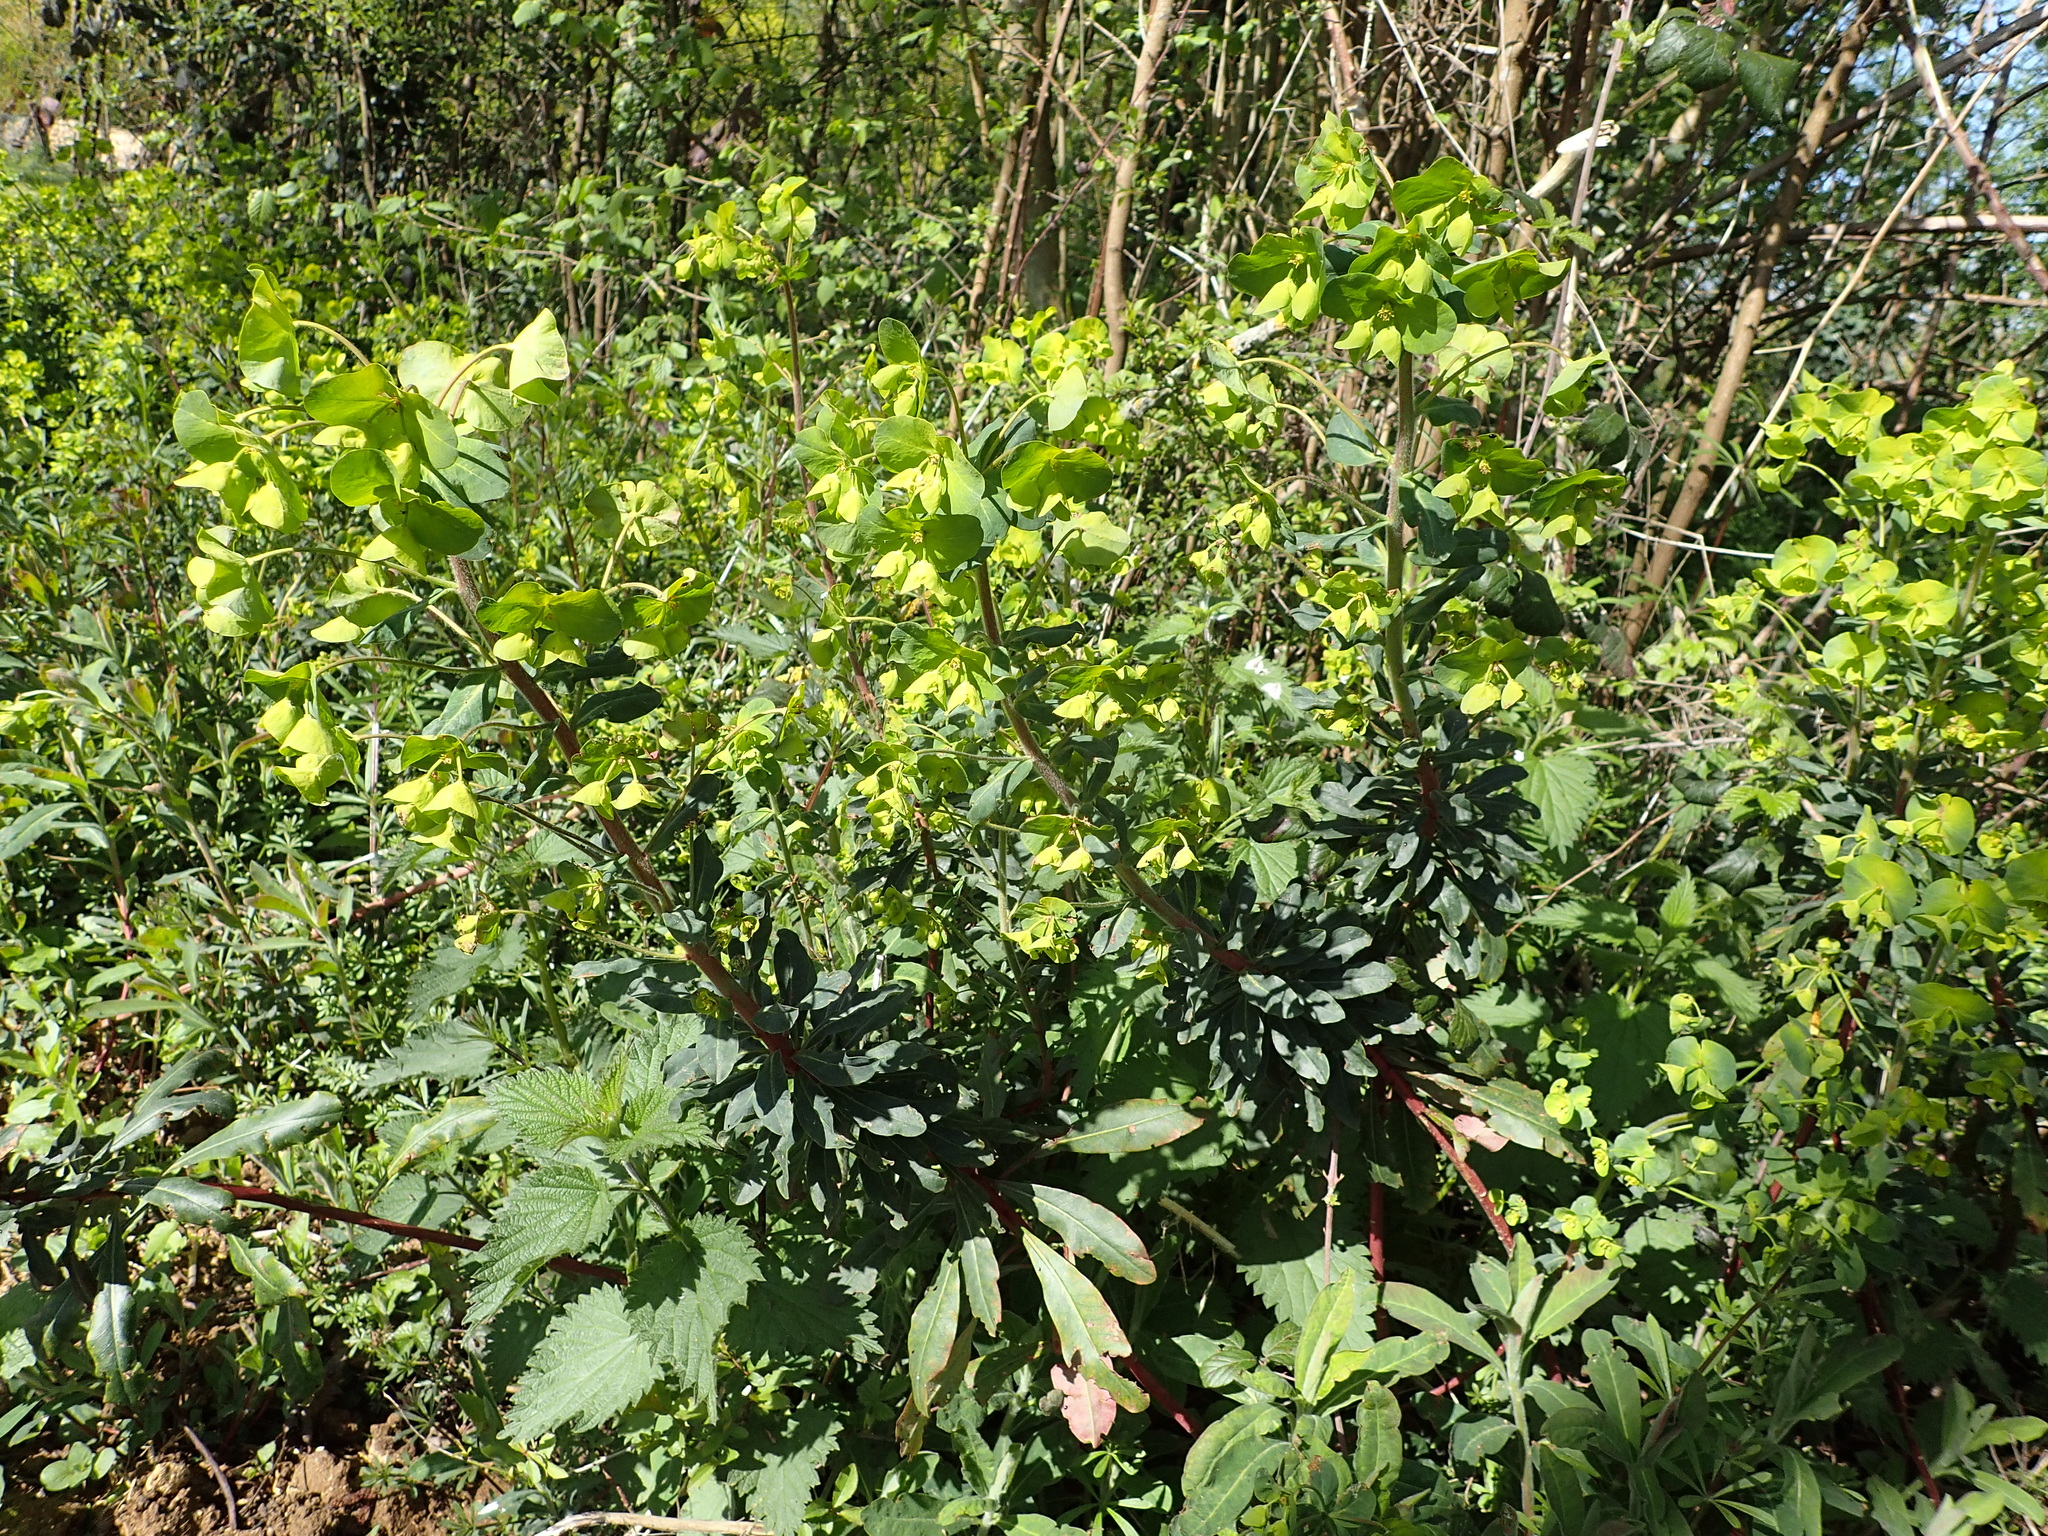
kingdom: Plantae
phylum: Tracheophyta
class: Magnoliopsida
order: Malpighiales
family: Euphorbiaceae
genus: Euphorbia
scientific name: Euphorbia amygdaloides
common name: Wood spurge
